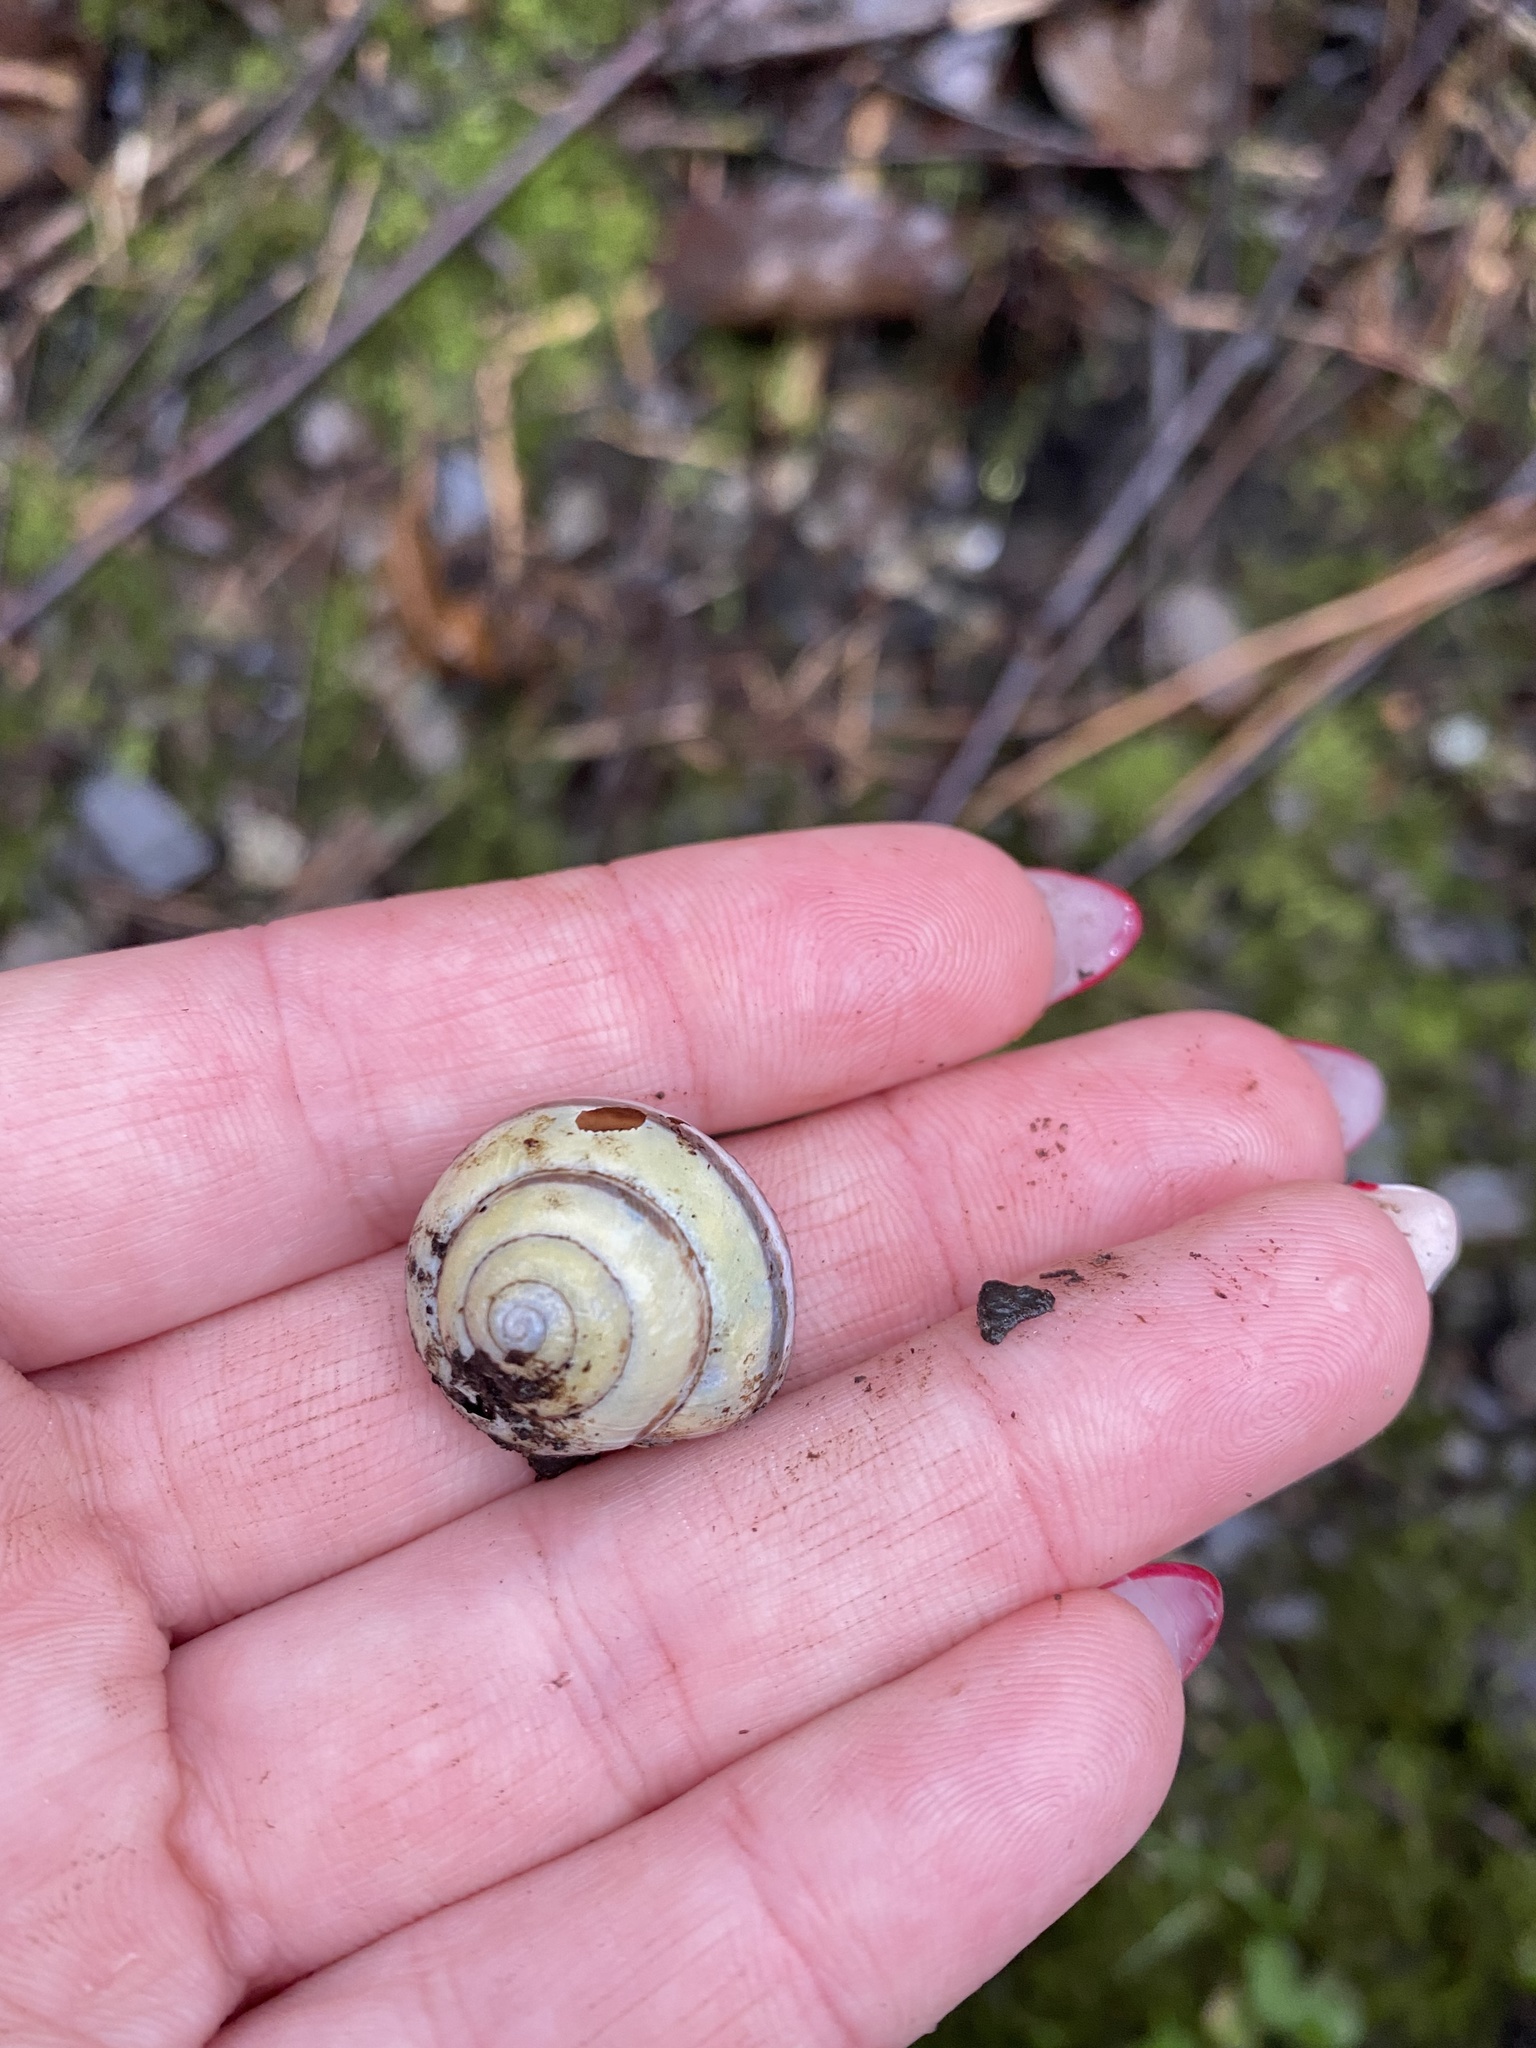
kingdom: Animalia
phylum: Mollusca
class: Gastropoda
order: Stylommatophora
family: Helicidae
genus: Cepaea
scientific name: Cepaea nemoralis
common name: Grovesnail
